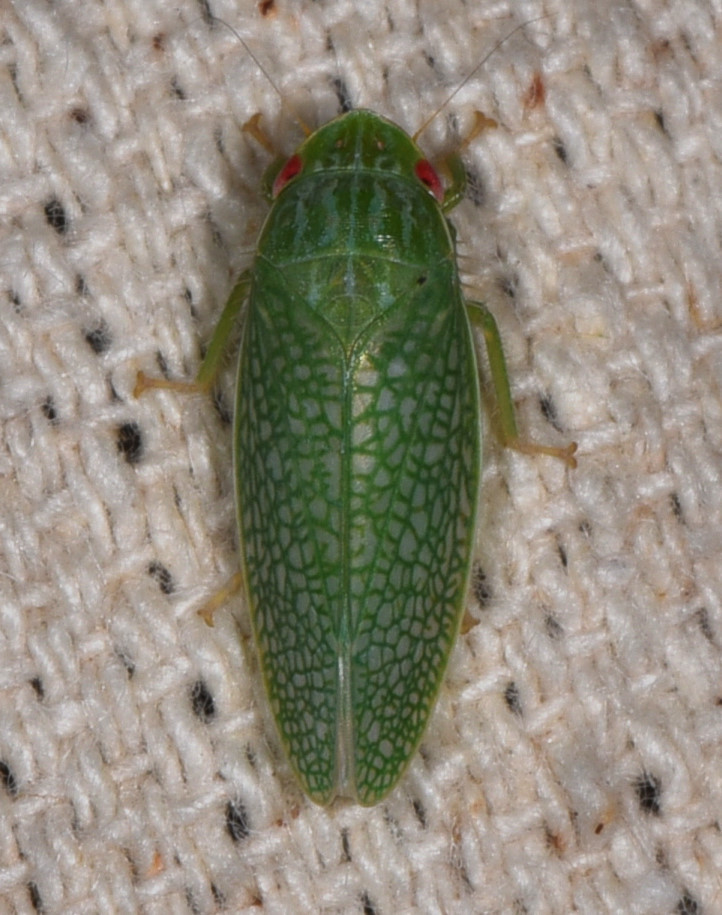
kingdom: Animalia
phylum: Arthropoda
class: Insecta
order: Hemiptera
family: Cicadellidae
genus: Gyponana
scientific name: Gyponana procera
